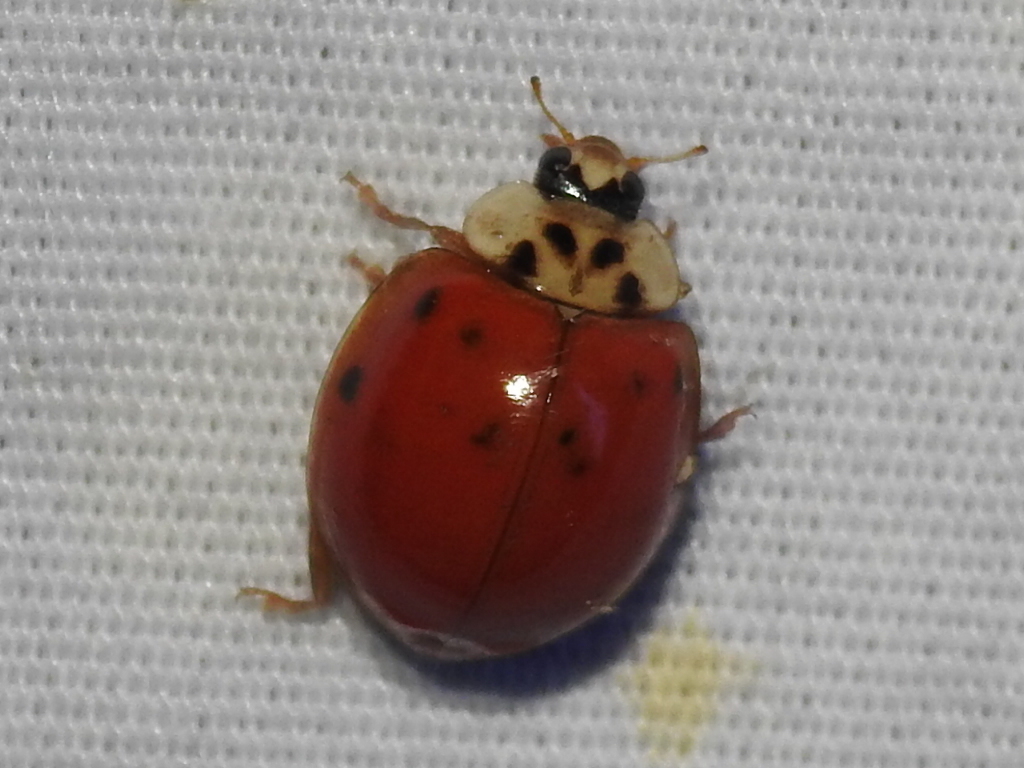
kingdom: Animalia
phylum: Arthropoda
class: Insecta
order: Coleoptera
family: Coccinellidae
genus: Harmonia
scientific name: Harmonia axyridis
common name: Harlequin ladybird
